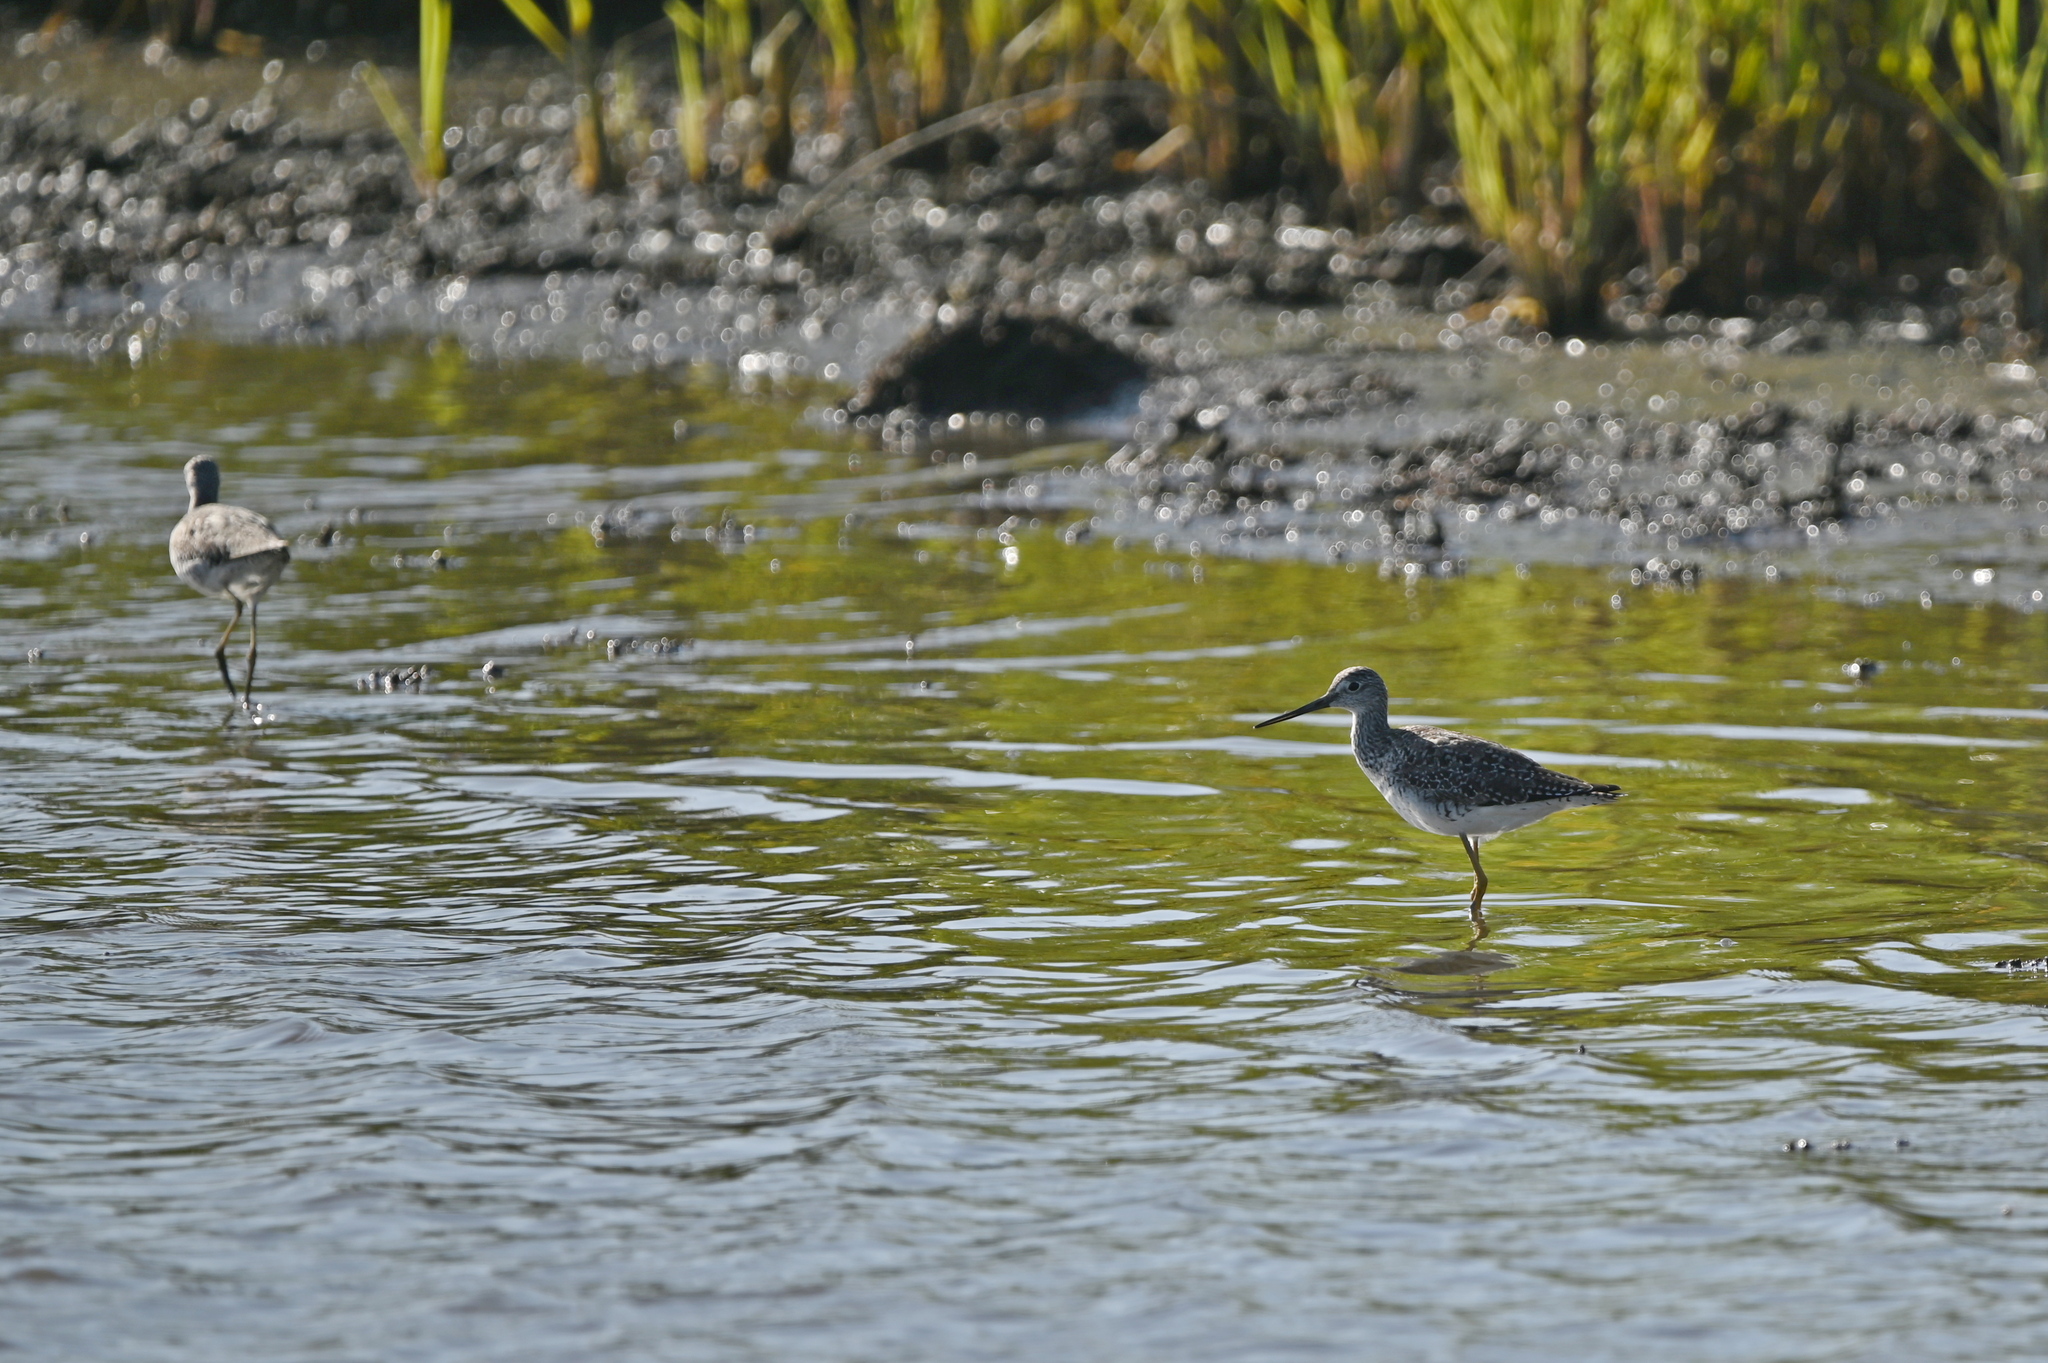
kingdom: Animalia
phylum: Chordata
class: Aves
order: Charadriiformes
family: Scolopacidae
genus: Tringa
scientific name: Tringa melanoleuca
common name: Greater yellowlegs
